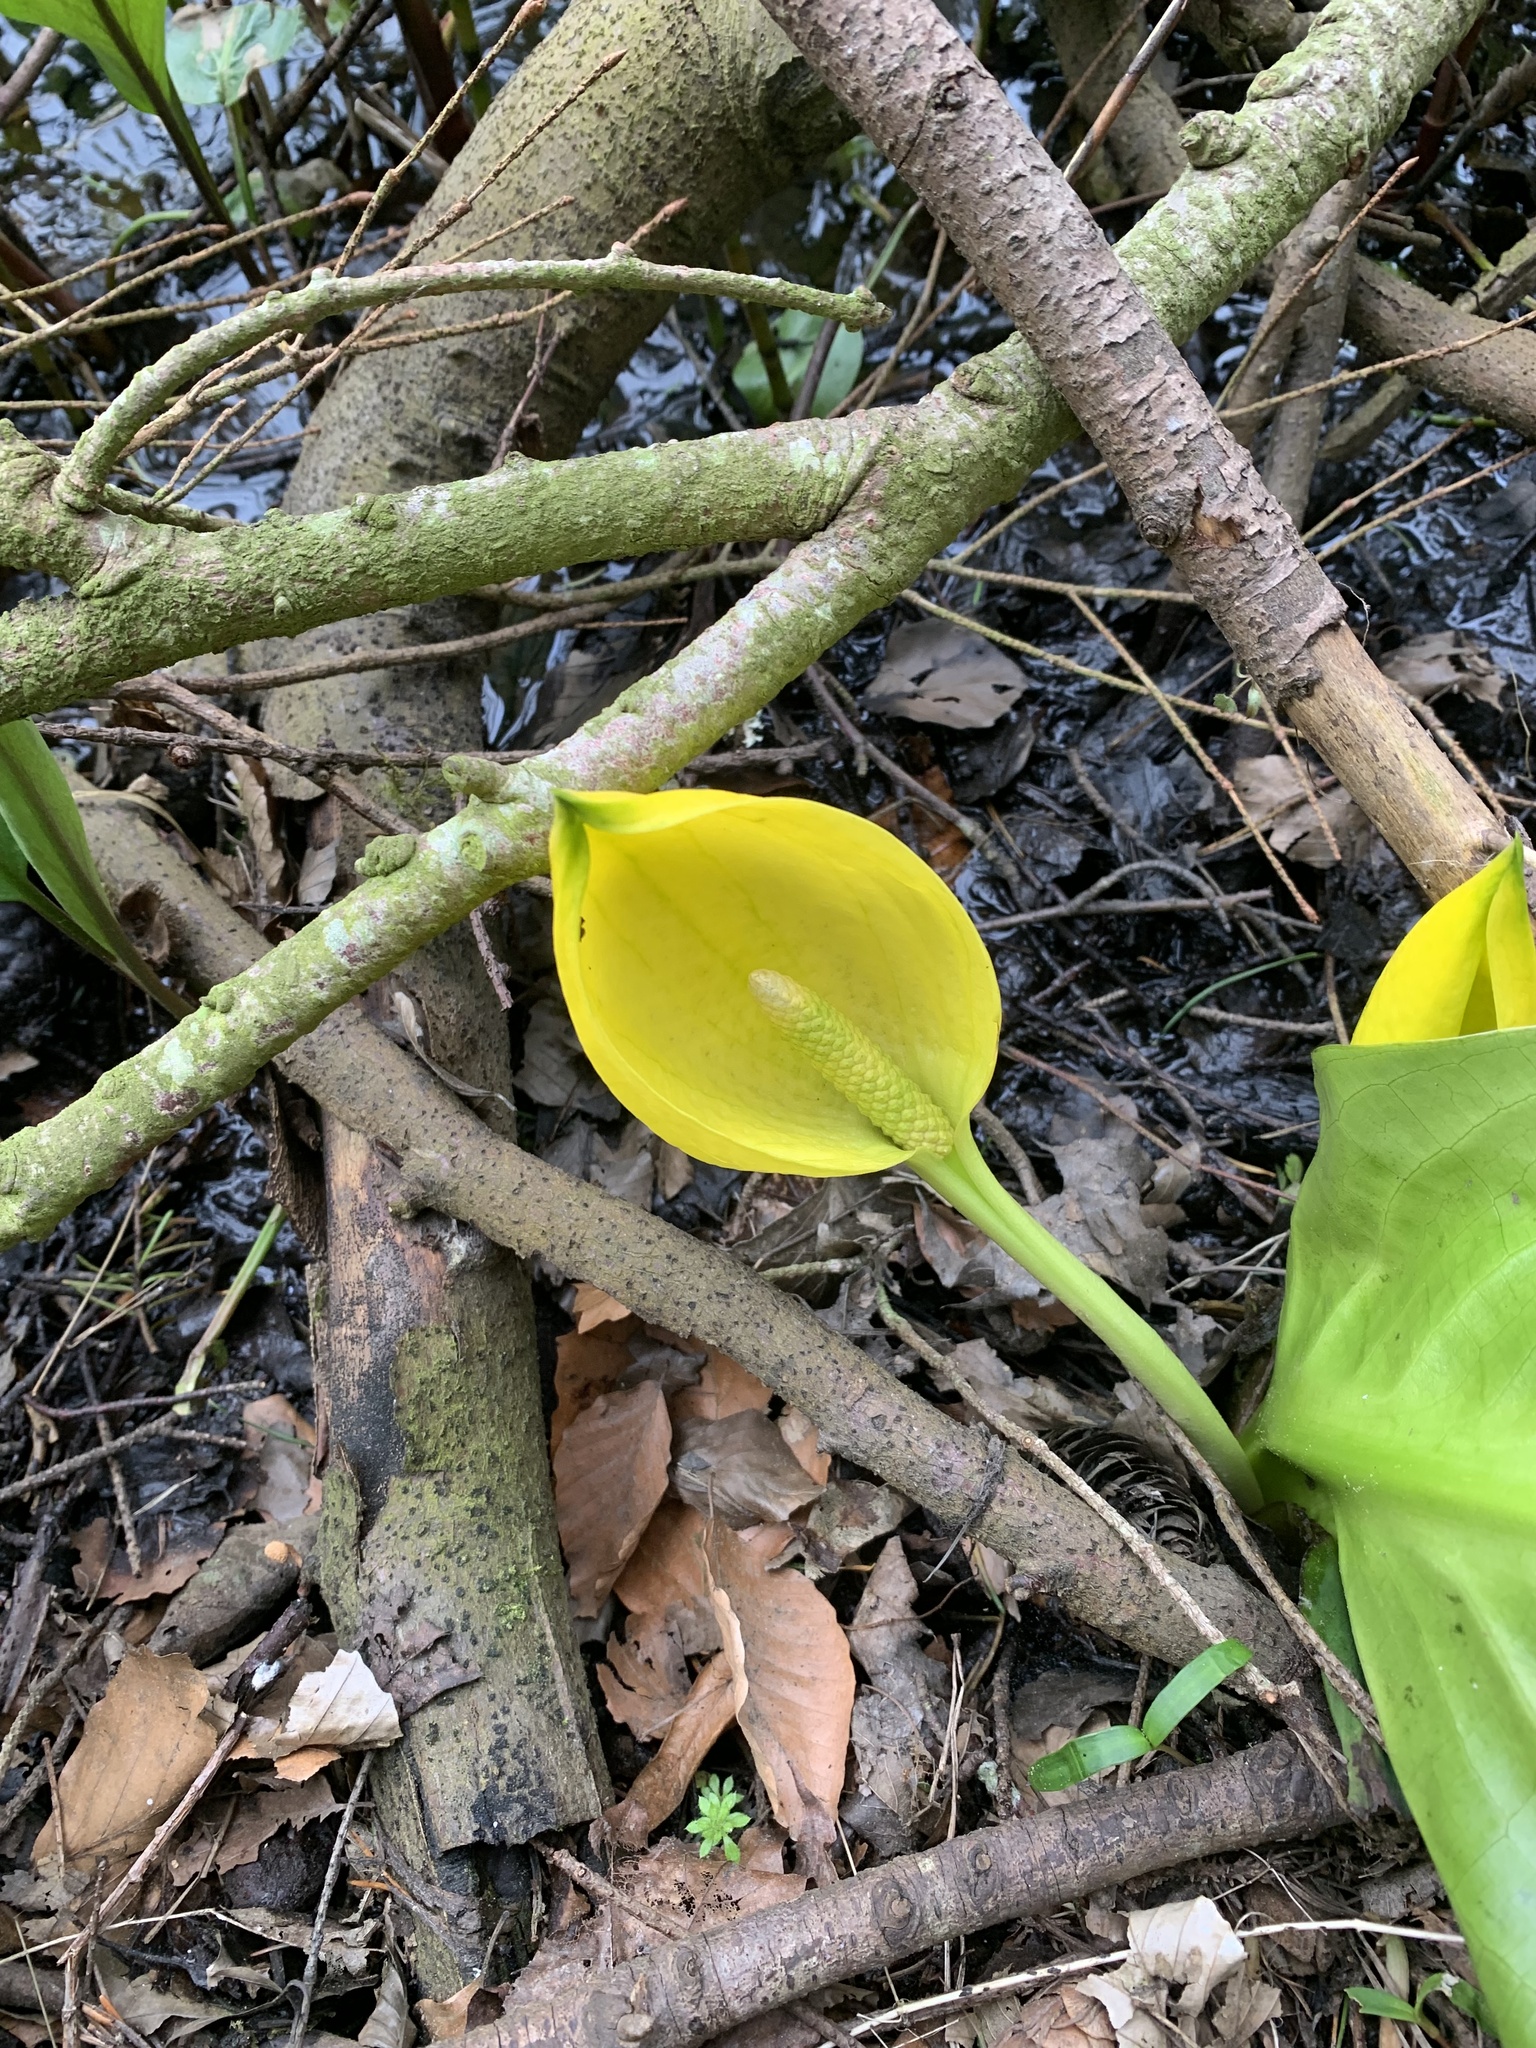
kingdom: Plantae
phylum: Tracheophyta
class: Liliopsida
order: Alismatales
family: Araceae
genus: Lysichiton
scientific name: Lysichiton americanus
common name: American skunk cabbage
